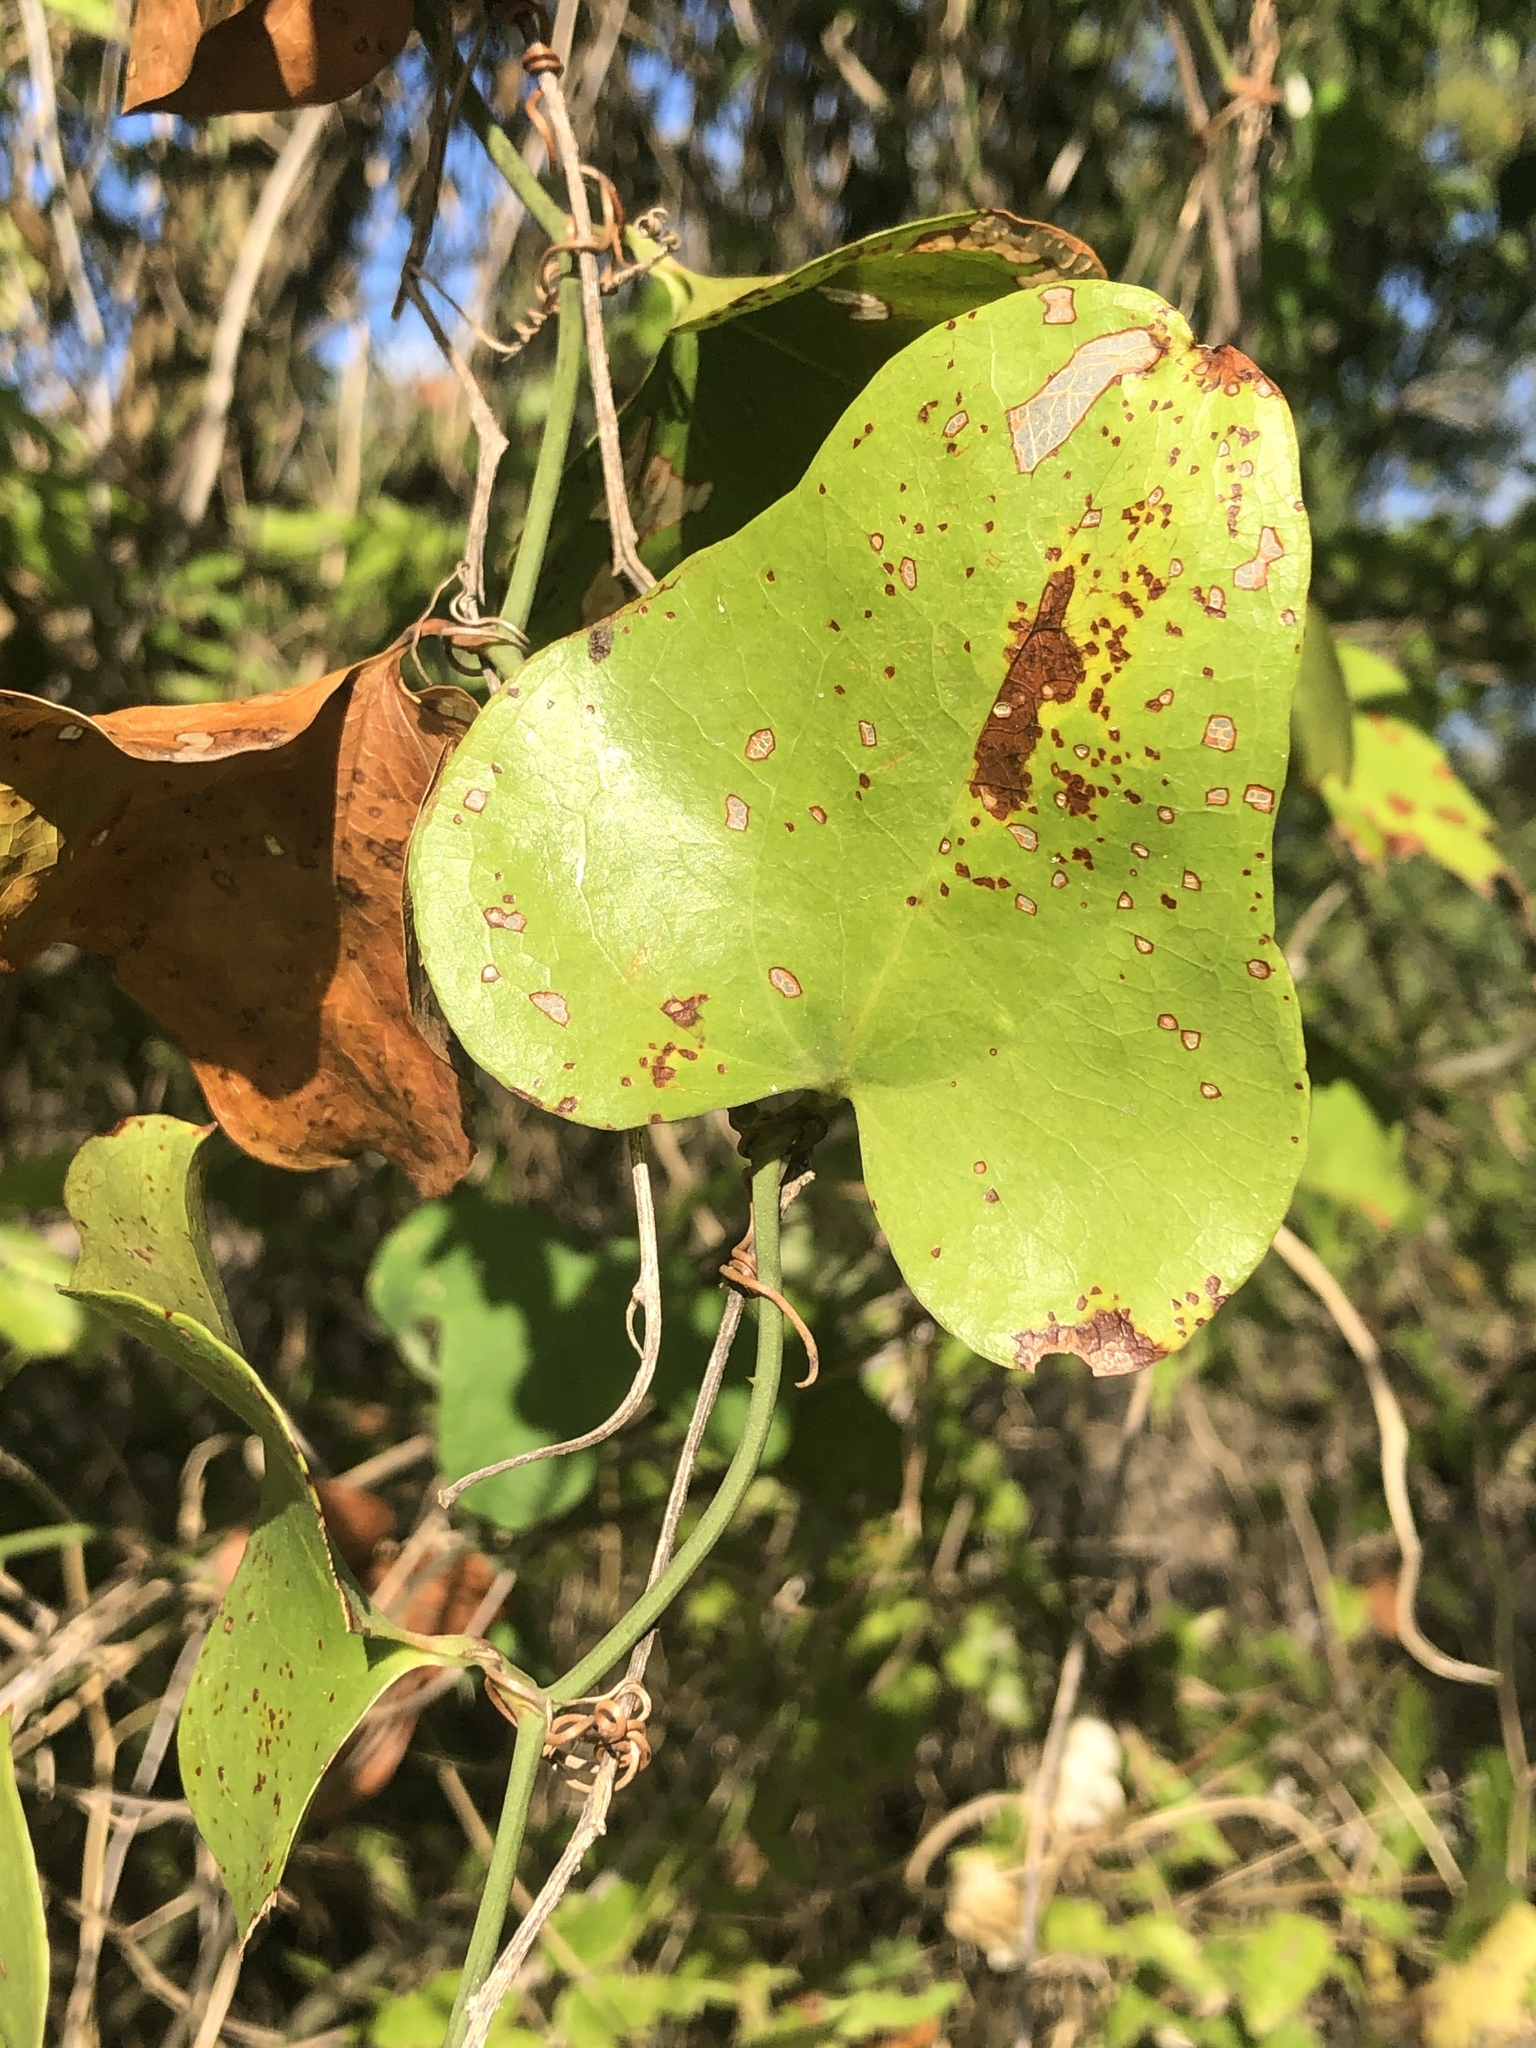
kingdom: Plantae
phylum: Tracheophyta
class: Liliopsida
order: Liliales
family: Smilacaceae
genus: Smilax
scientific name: Smilax bona-nox
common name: Catbrier
